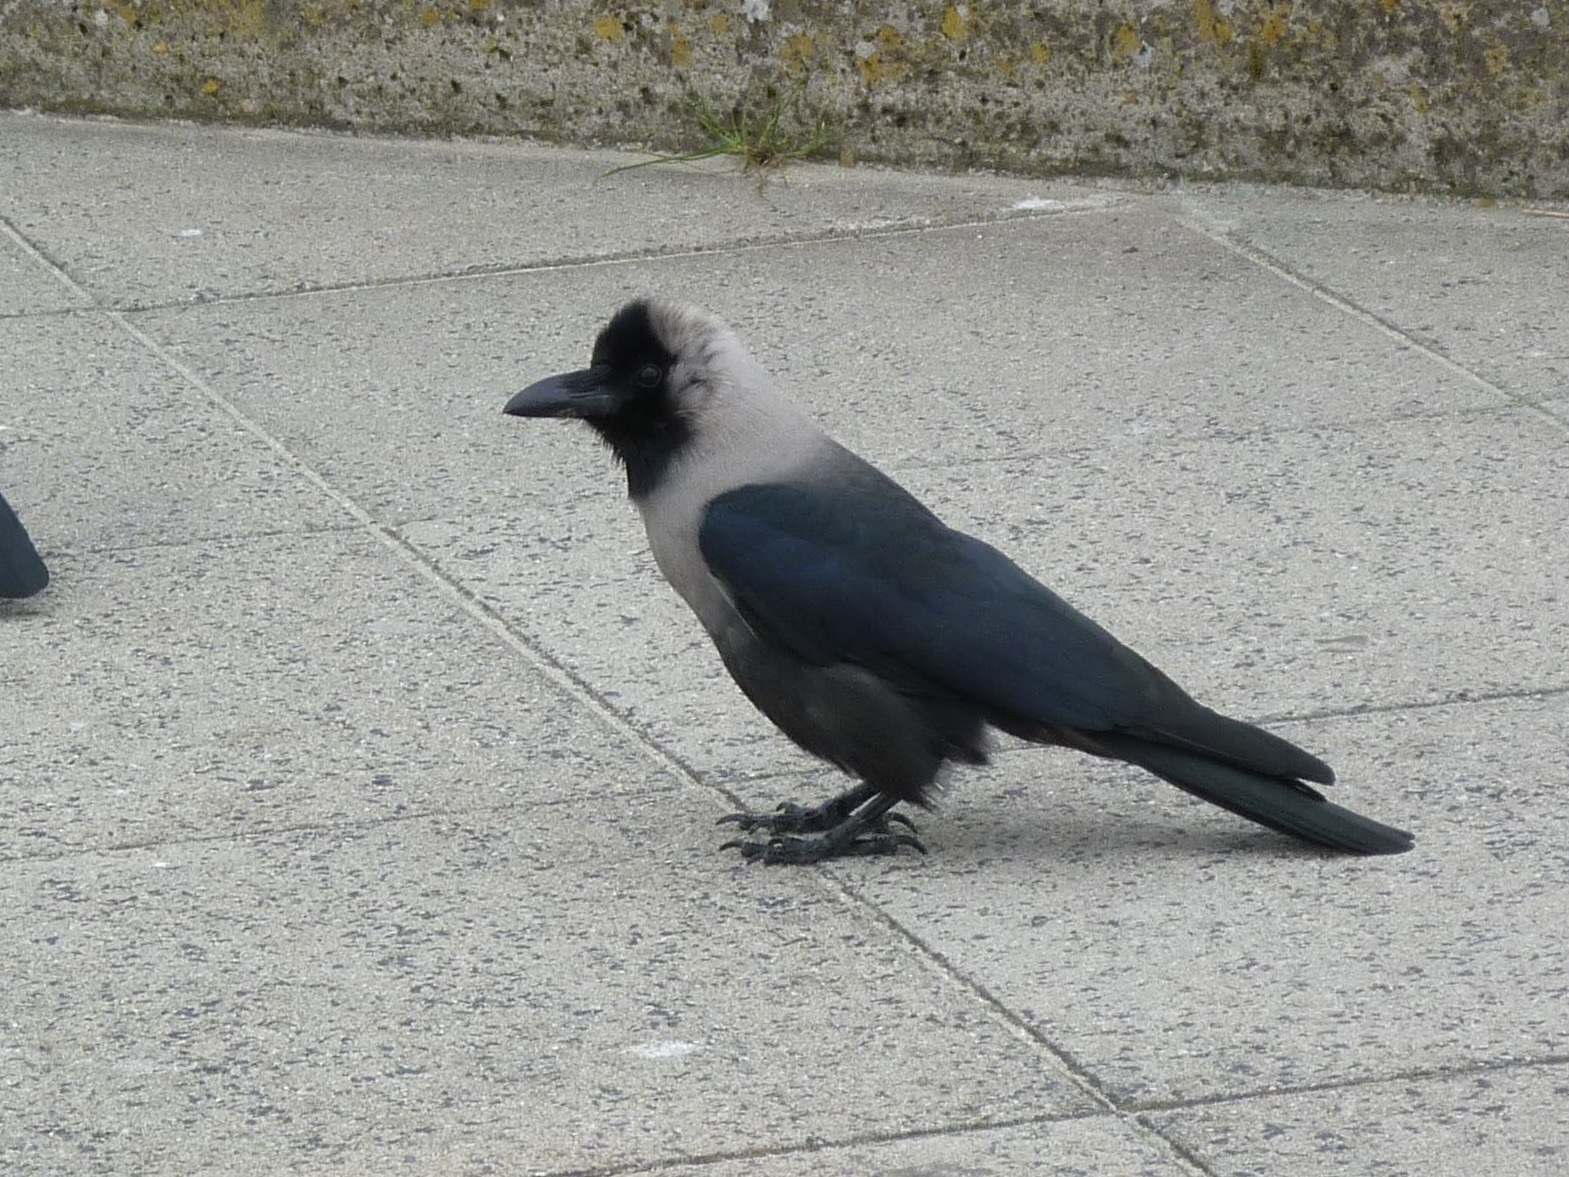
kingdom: Animalia
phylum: Chordata
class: Aves
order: Passeriformes
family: Corvidae
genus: Corvus
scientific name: Corvus splendens
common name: House crow
